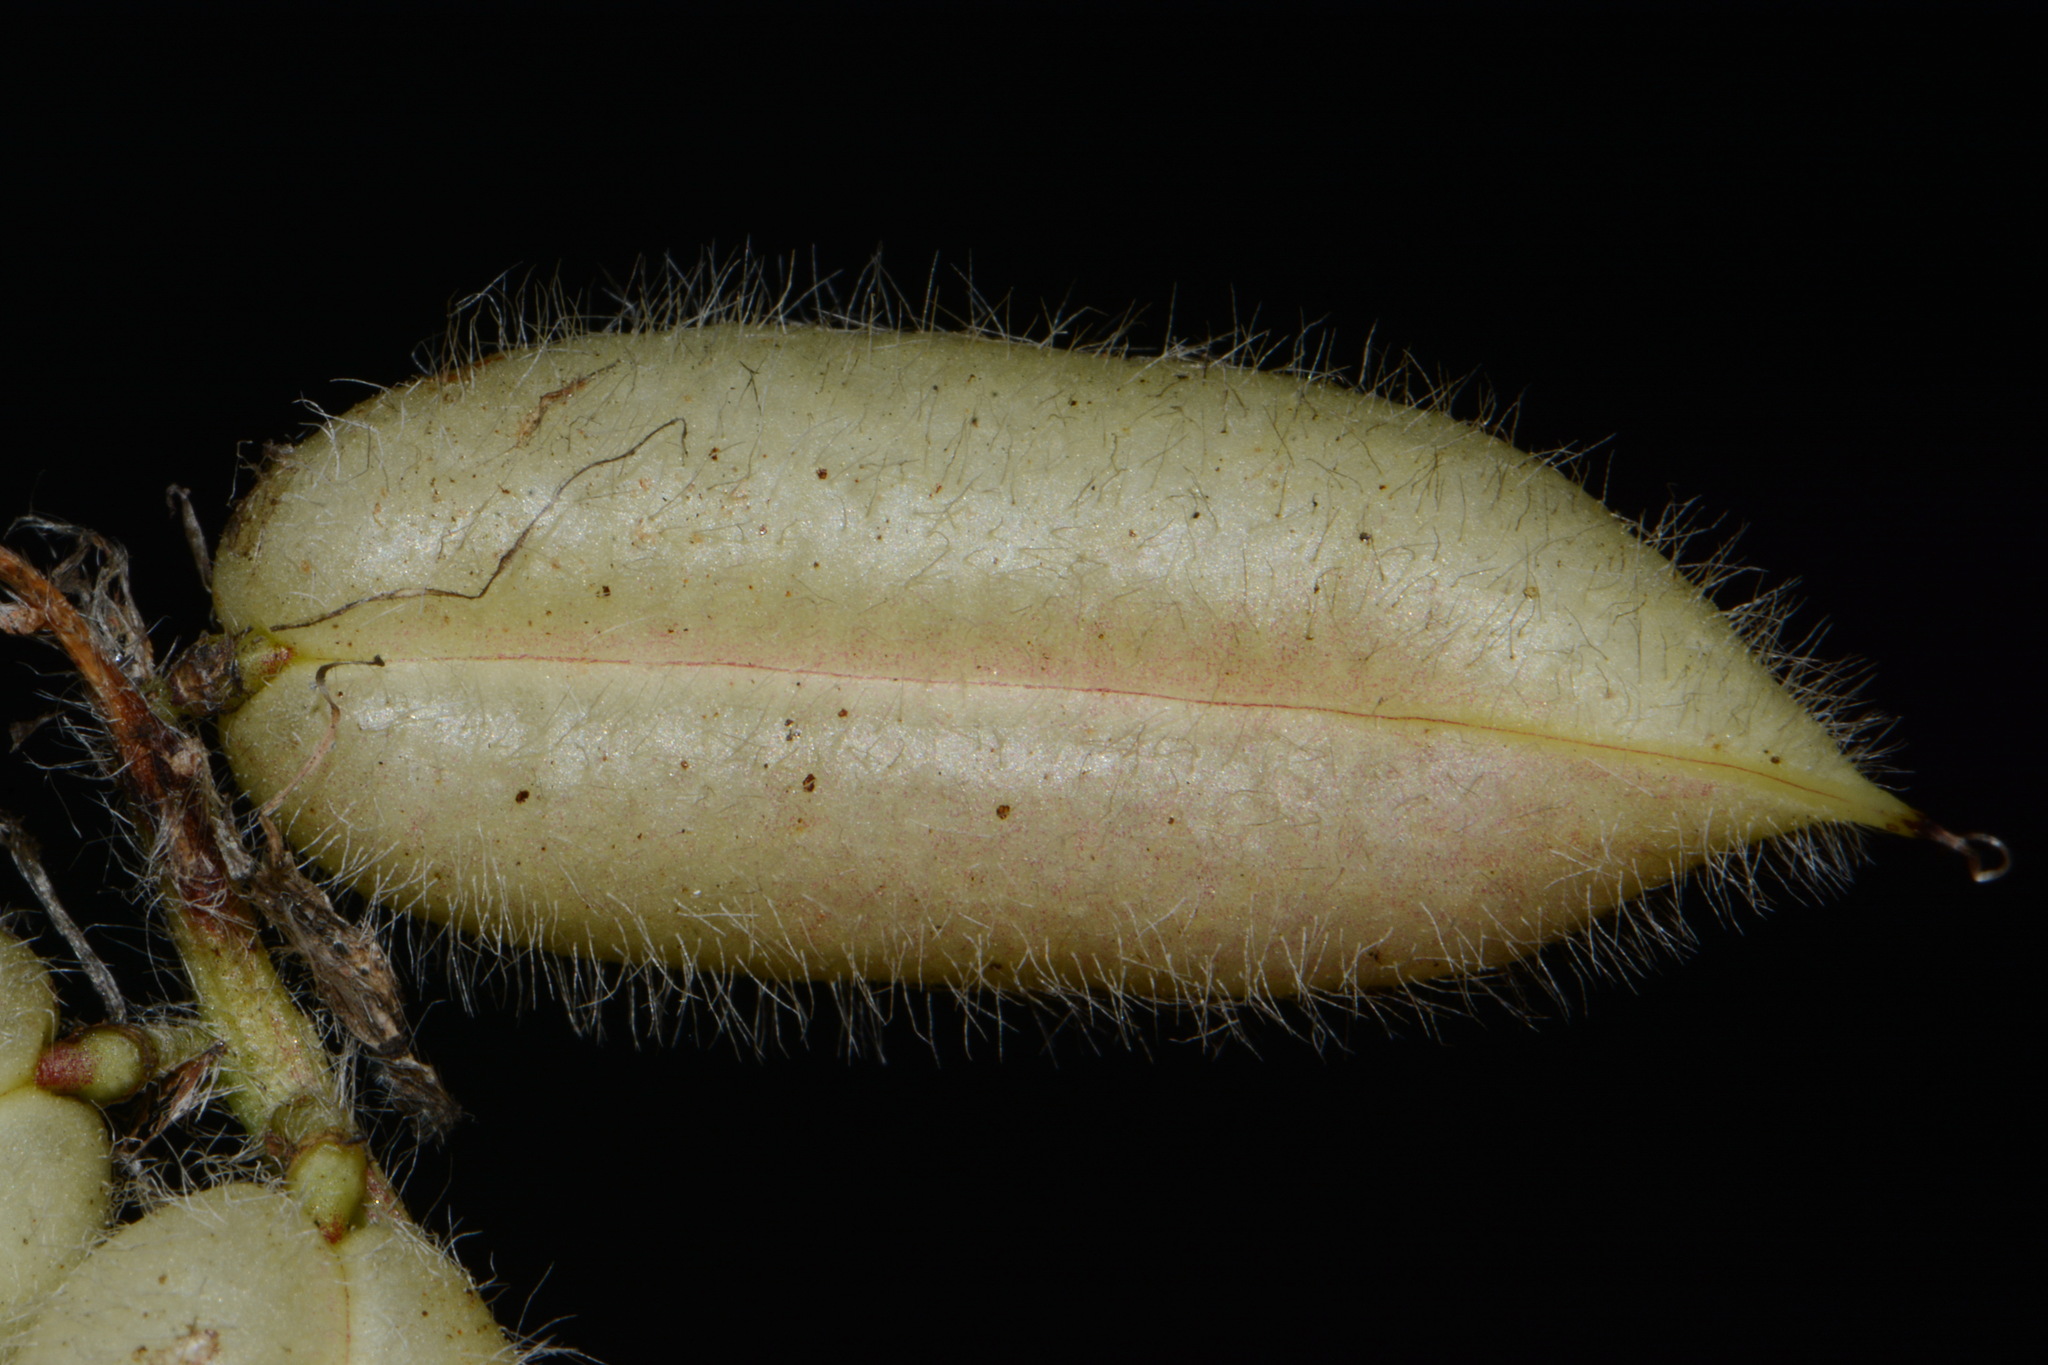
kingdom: Plantae
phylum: Tracheophyta
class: Magnoliopsida
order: Fabales
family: Fabaceae
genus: Astragalus
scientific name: Astragalus tennesseensis
